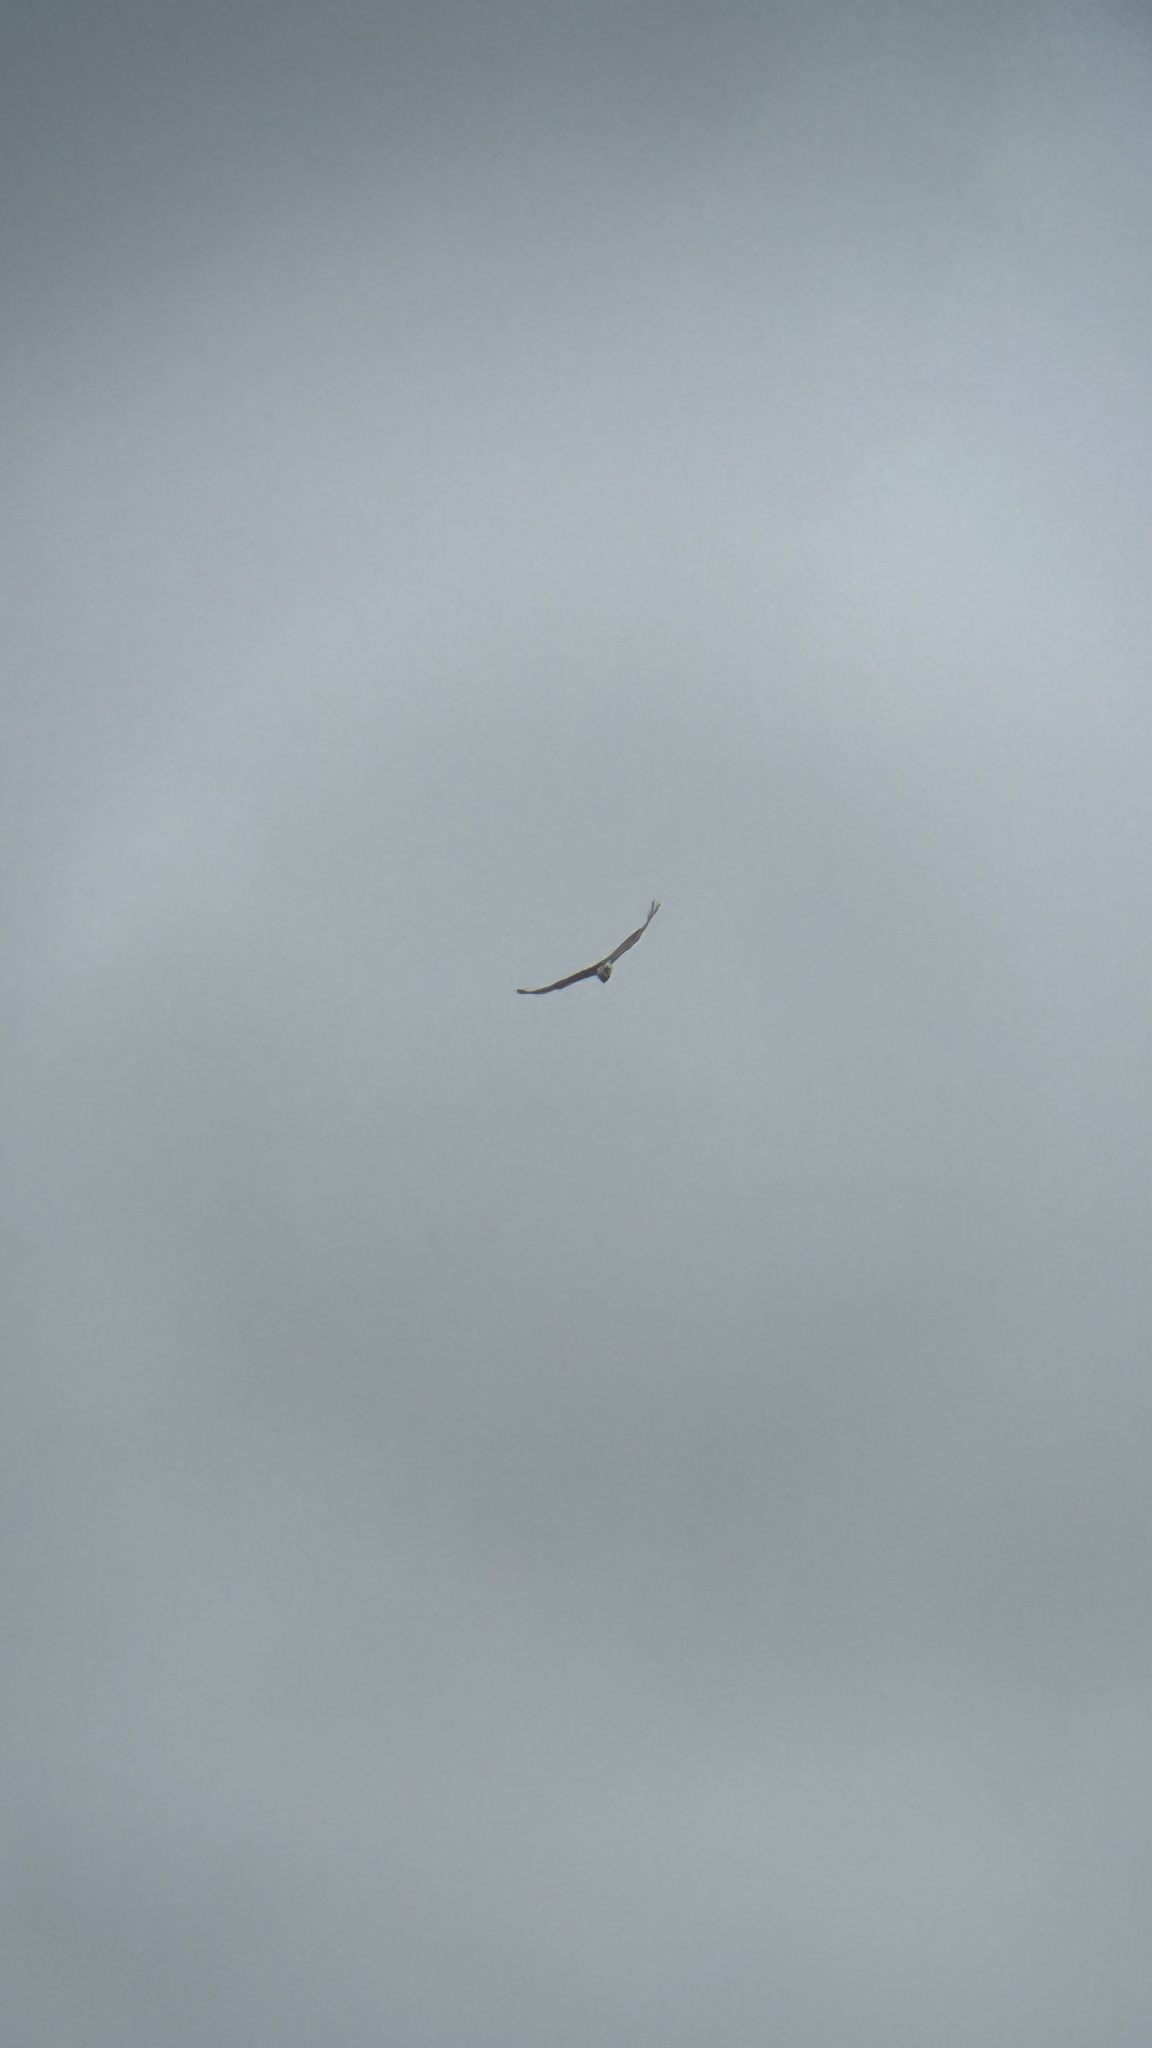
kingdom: Animalia
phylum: Chordata
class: Aves
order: Accipitriformes
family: Accipitridae
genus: Circaetus
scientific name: Circaetus gallicus
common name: Short-toed snake eagle
